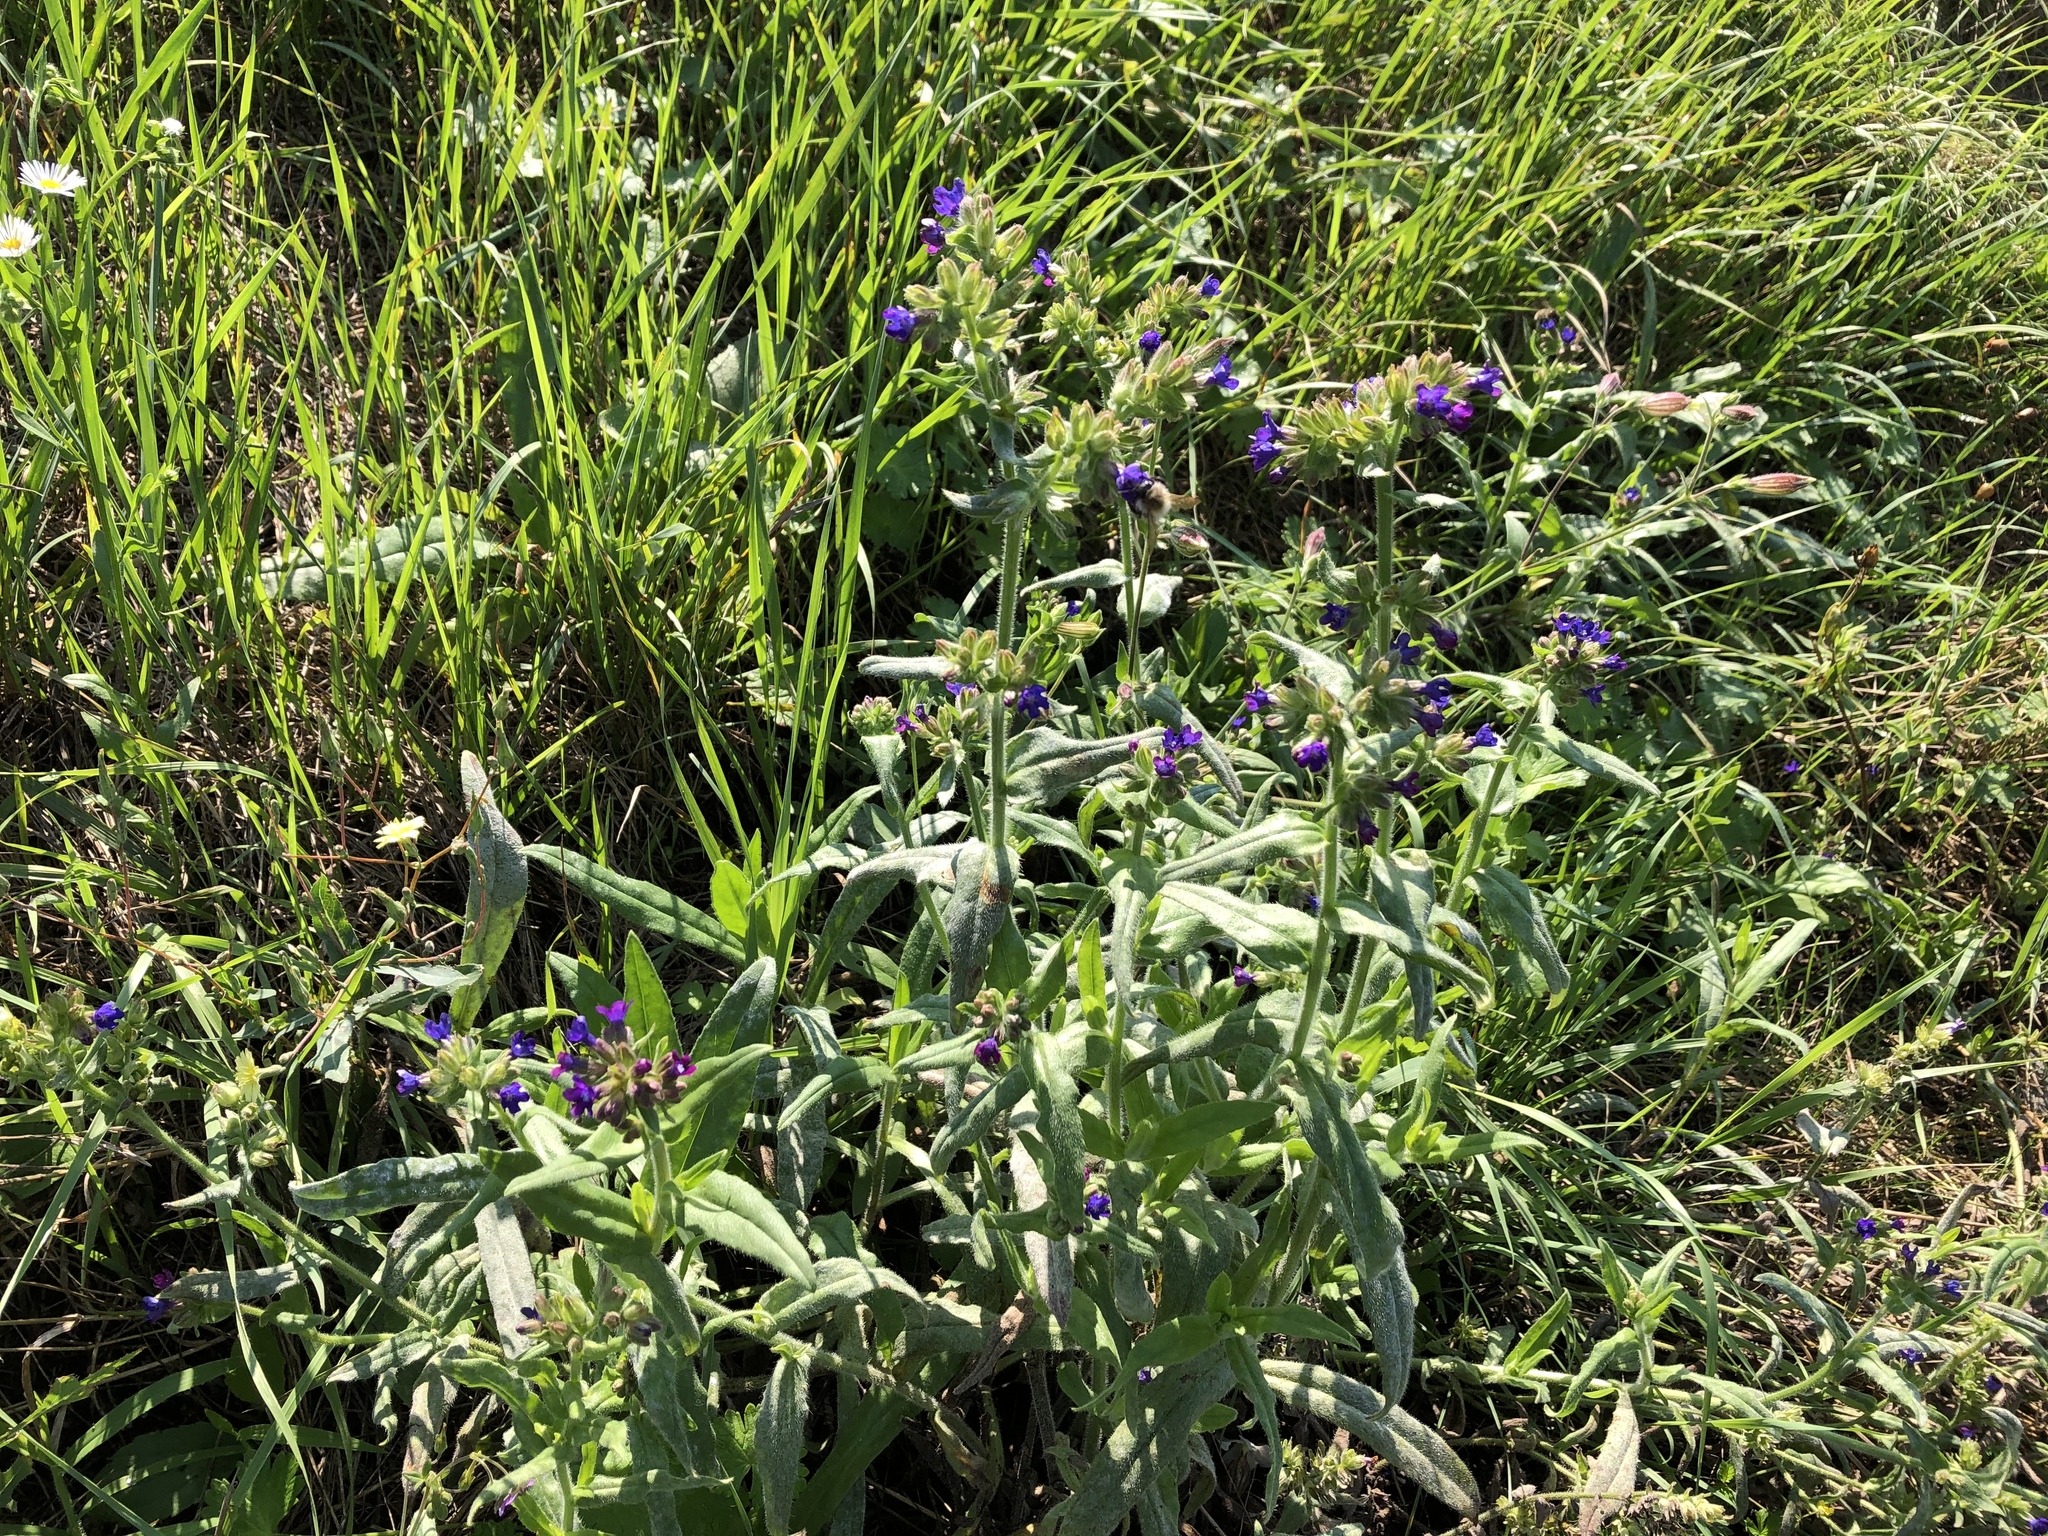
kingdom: Plantae
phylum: Tracheophyta
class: Magnoliopsida
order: Boraginales
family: Boraginaceae
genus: Anchusa
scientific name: Anchusa officinalis
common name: Alkanet
